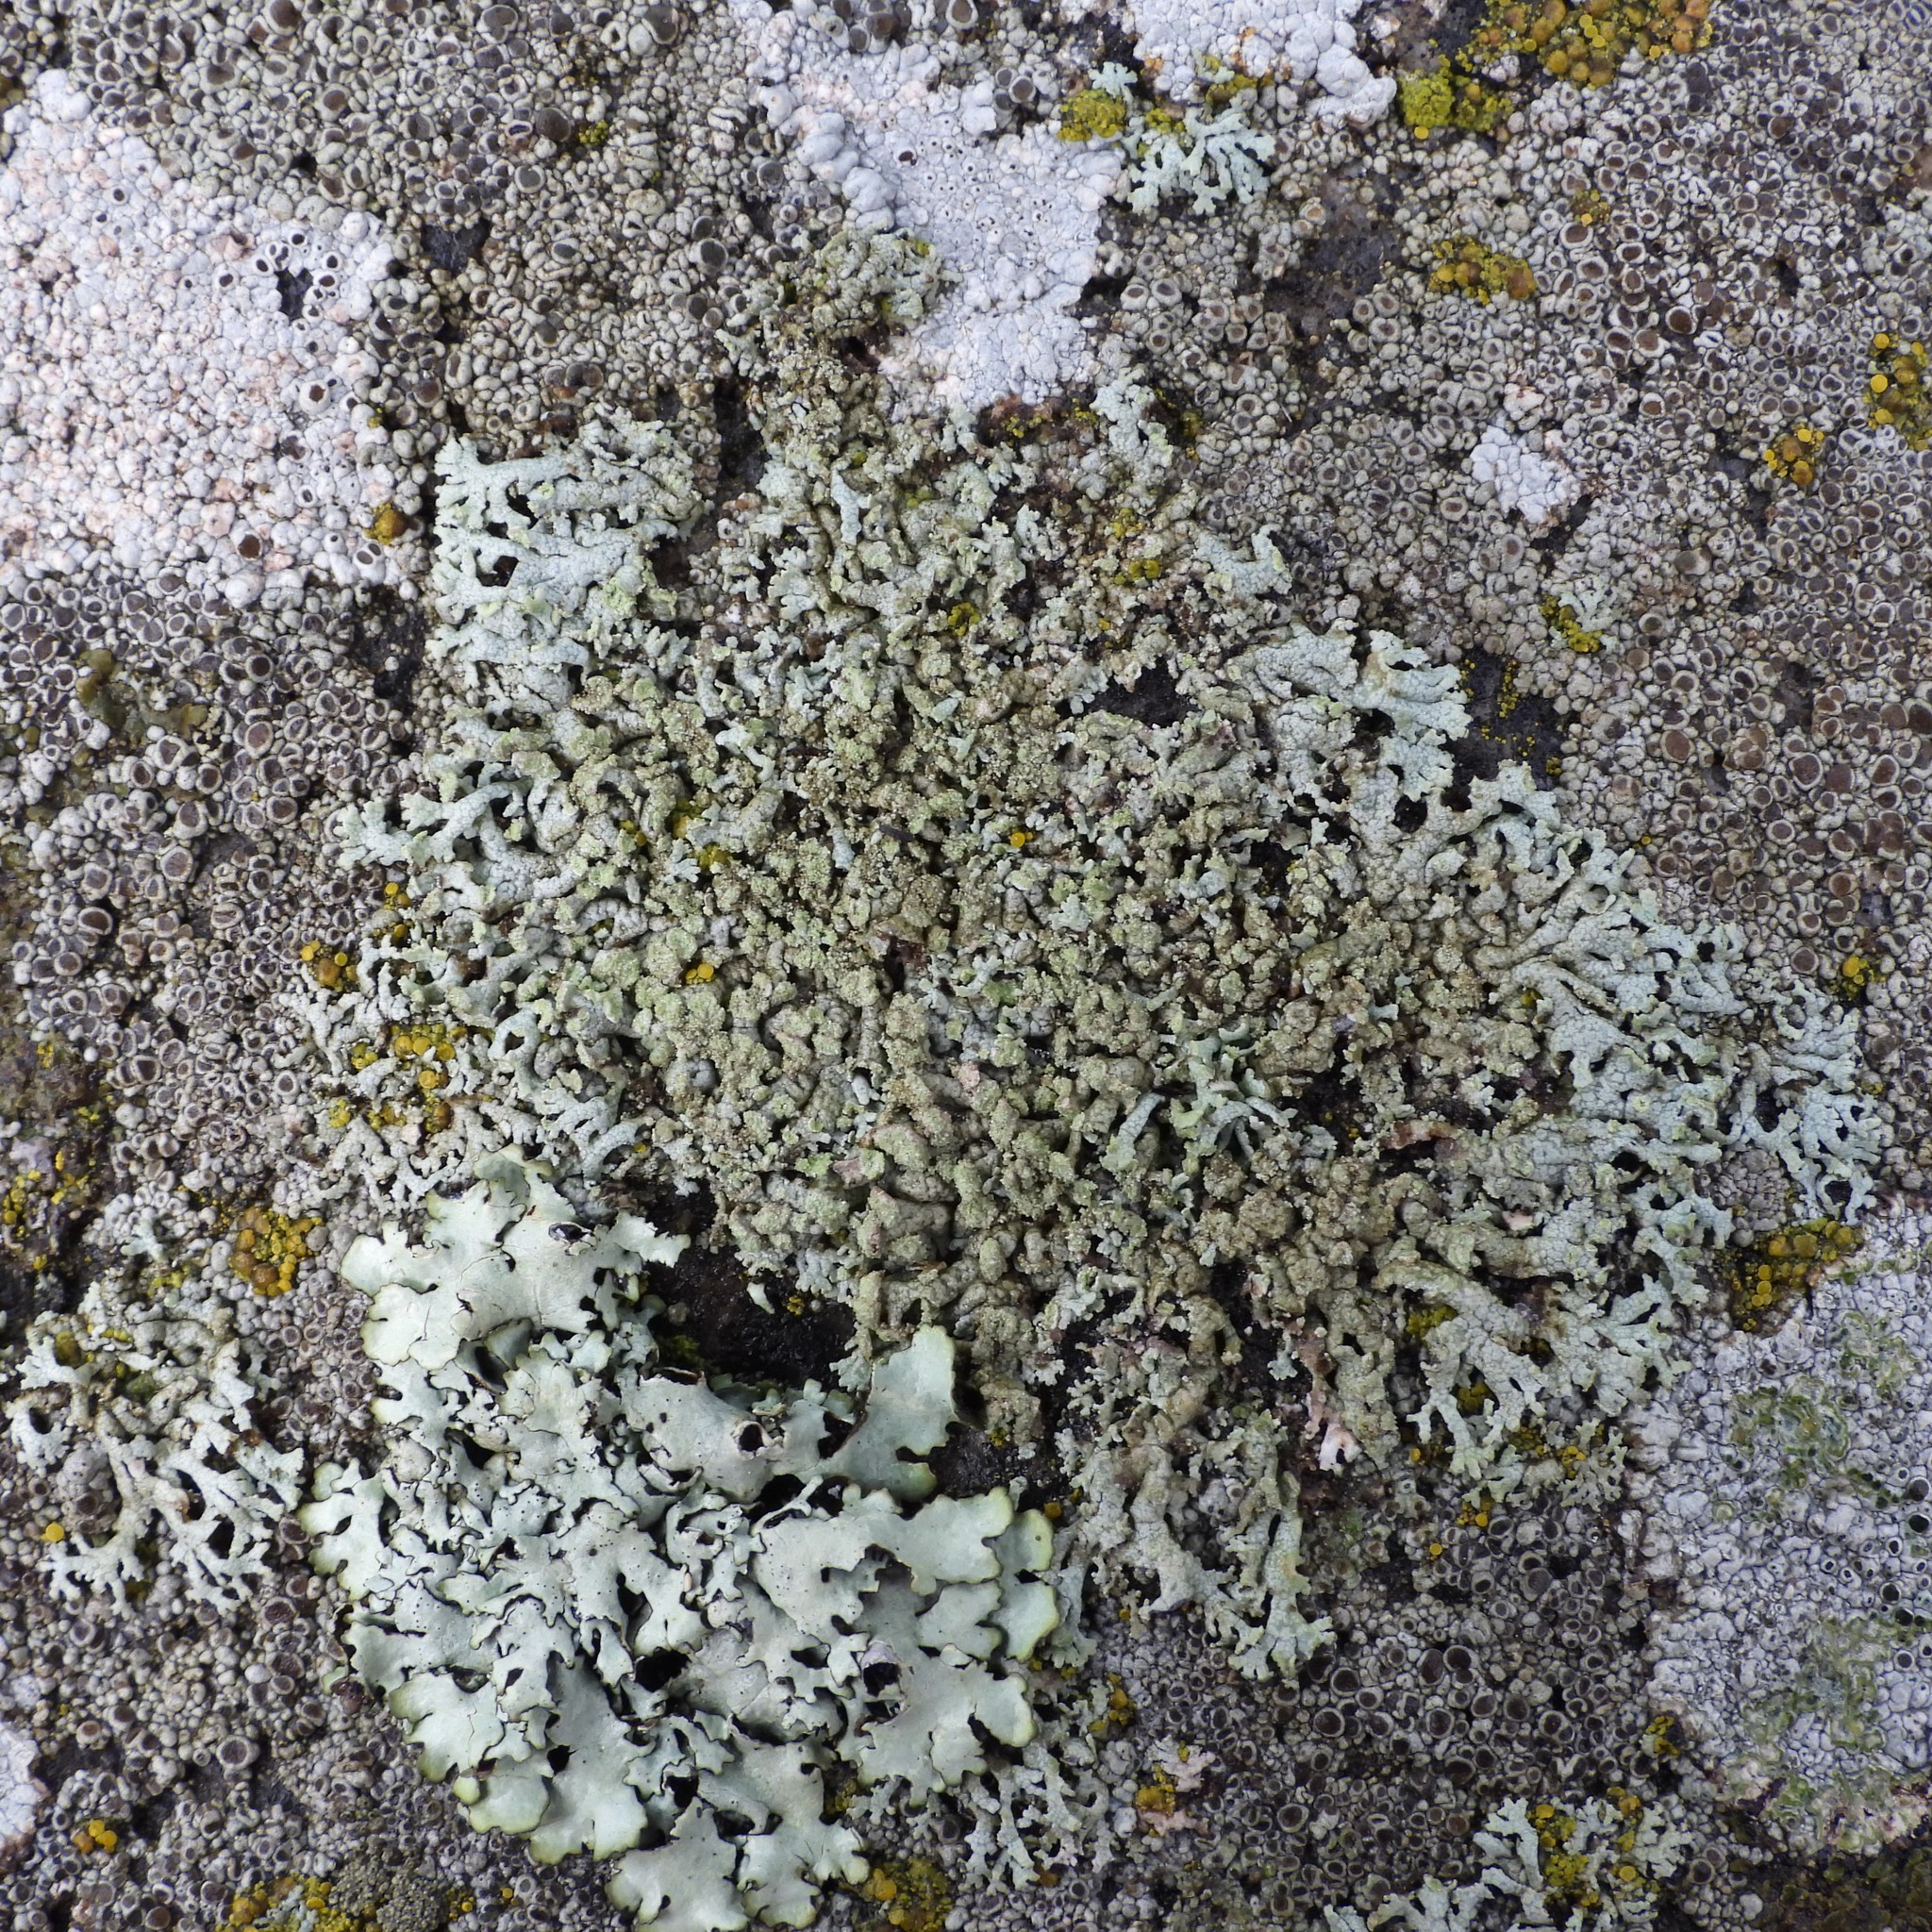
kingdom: Fungi
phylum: Ascomycota
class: Lecanoromycetes
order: Caliciales
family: Physciaceae
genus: Physcia
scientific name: Physcia caesia
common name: Blue-gray rosette lichen
